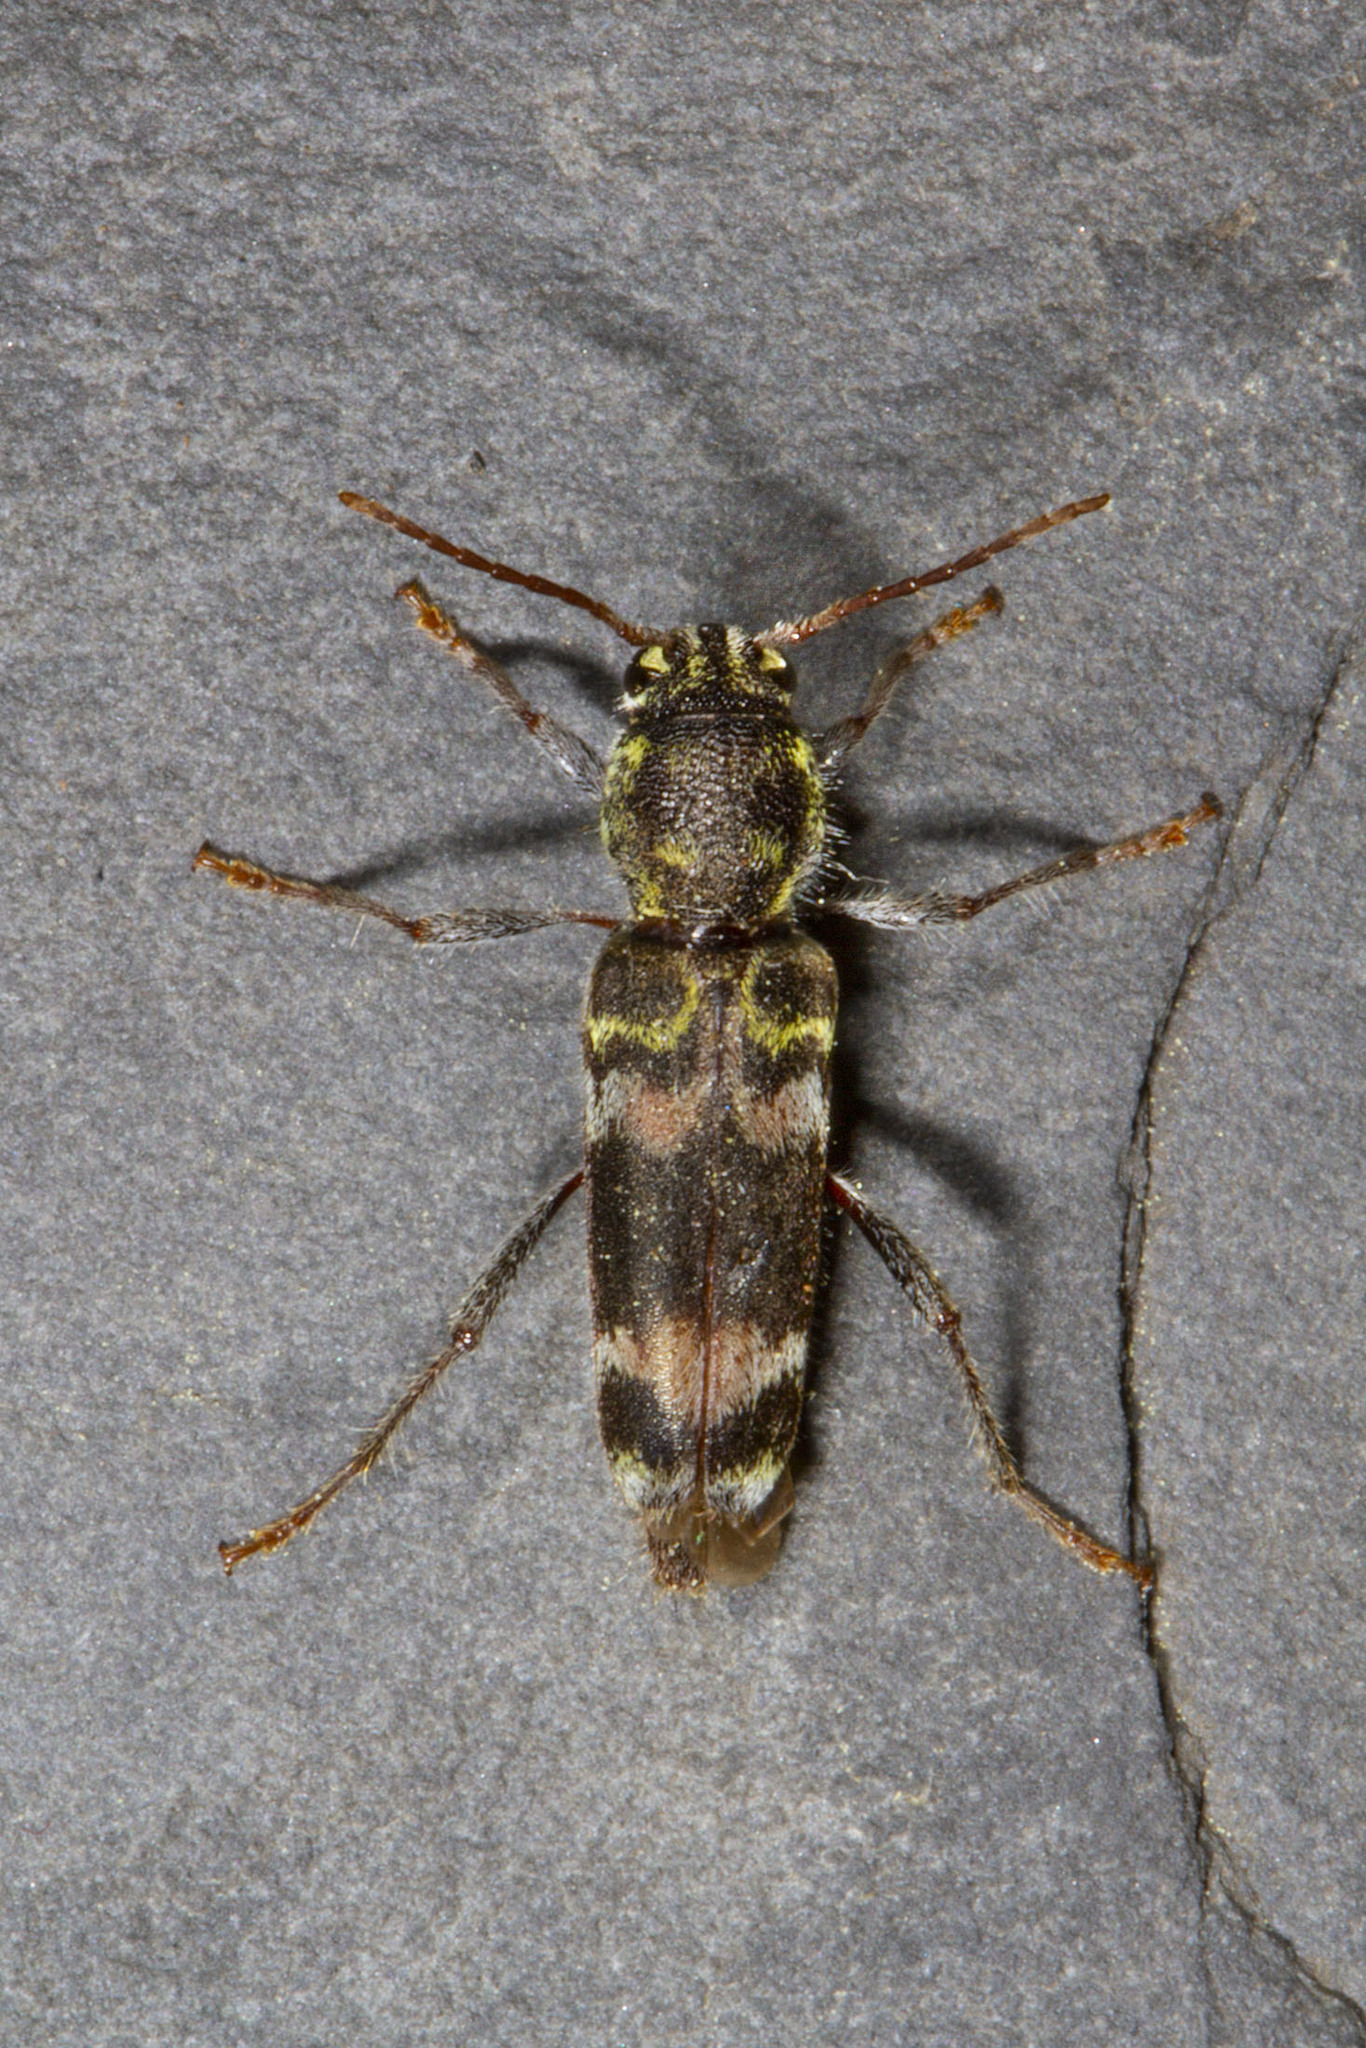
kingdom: Animalia
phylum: Arthropoda
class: Insecta
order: Coleoptera
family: Cerambycidae
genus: Xylotrechus
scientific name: Xylotrechus colonus
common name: Long-horned beetle
